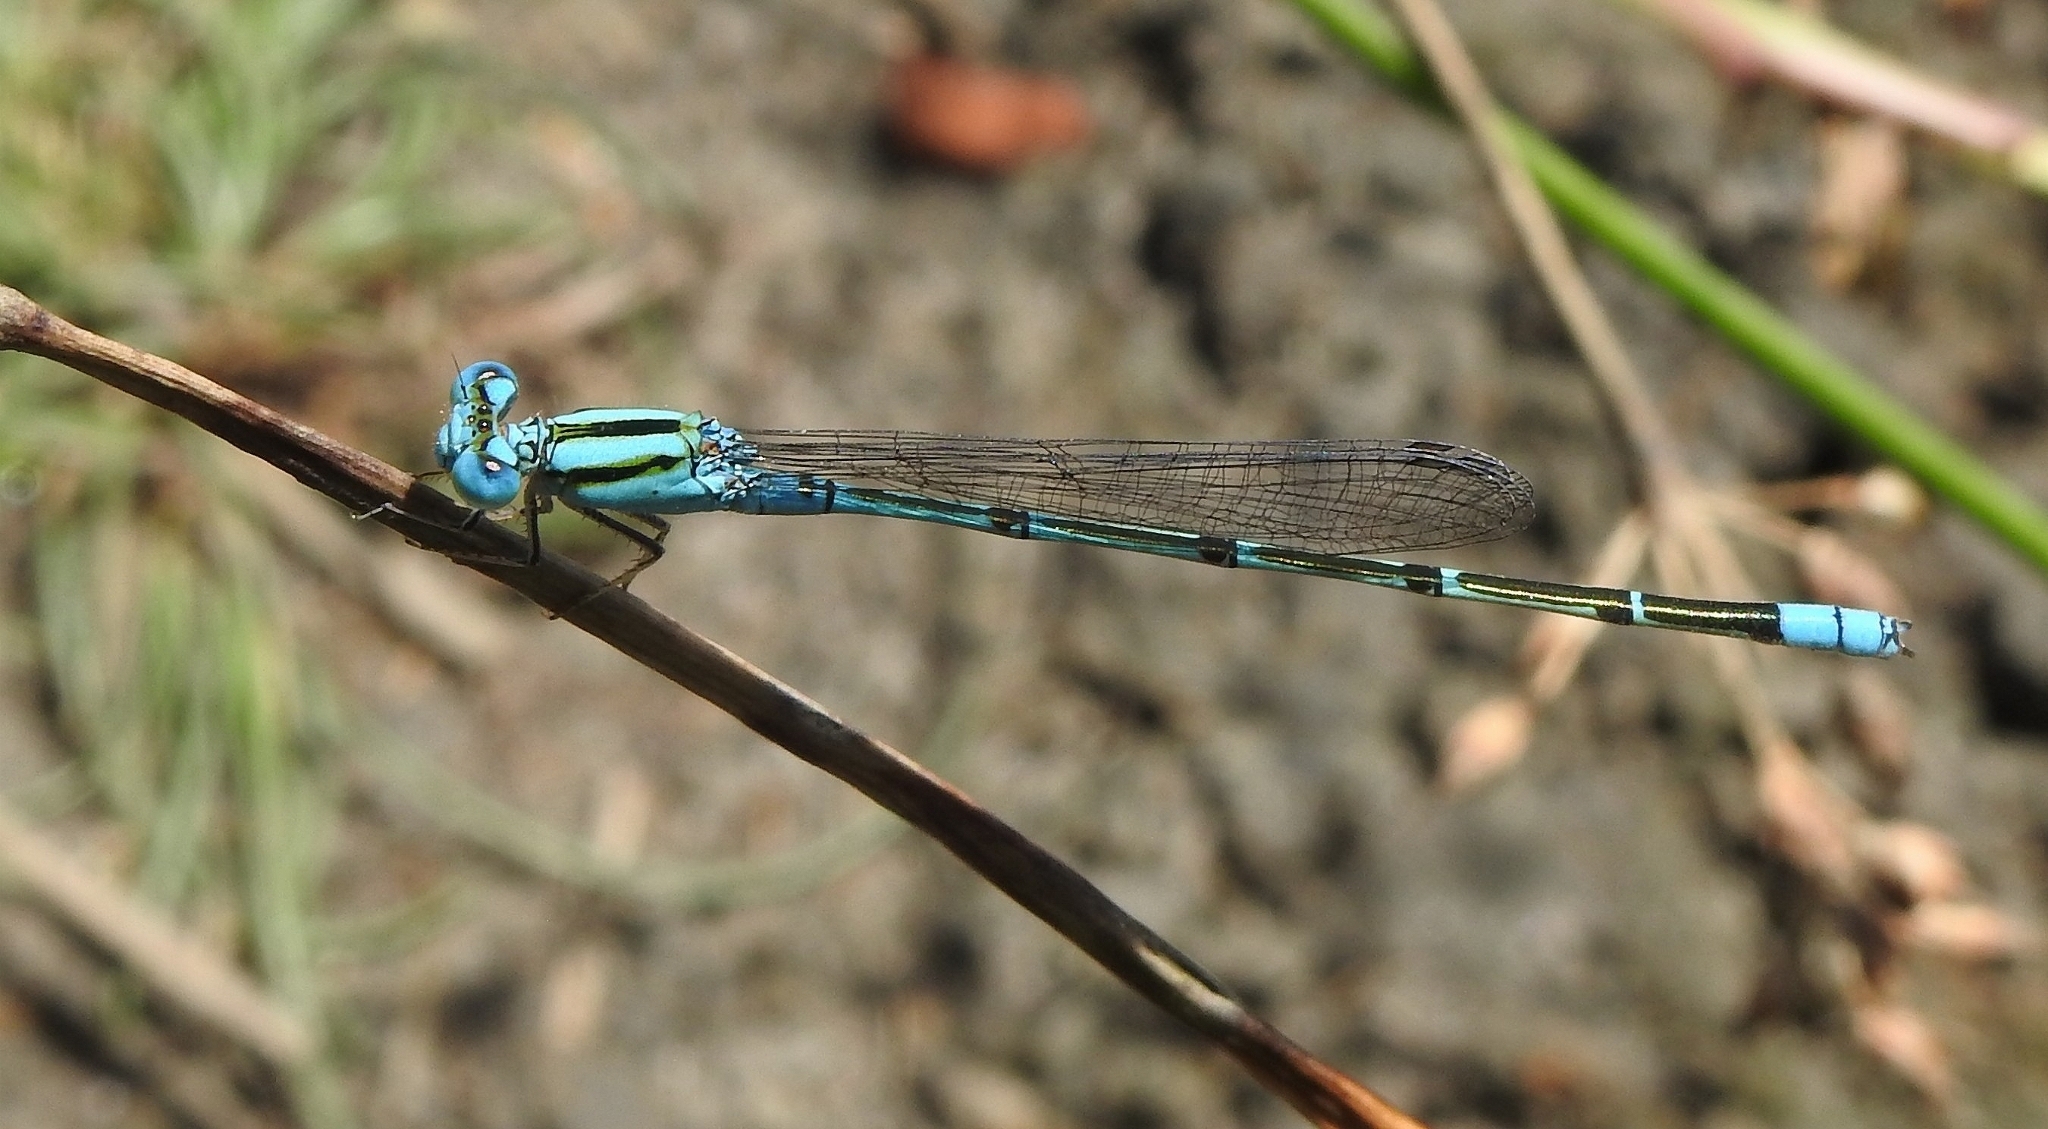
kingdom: Animalia
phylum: Arthropoda
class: Insecta
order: Odonata
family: Coenagrionidae
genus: Pseudagrion
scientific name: Pseudagrion microcephalum
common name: Blue riverdamsel
